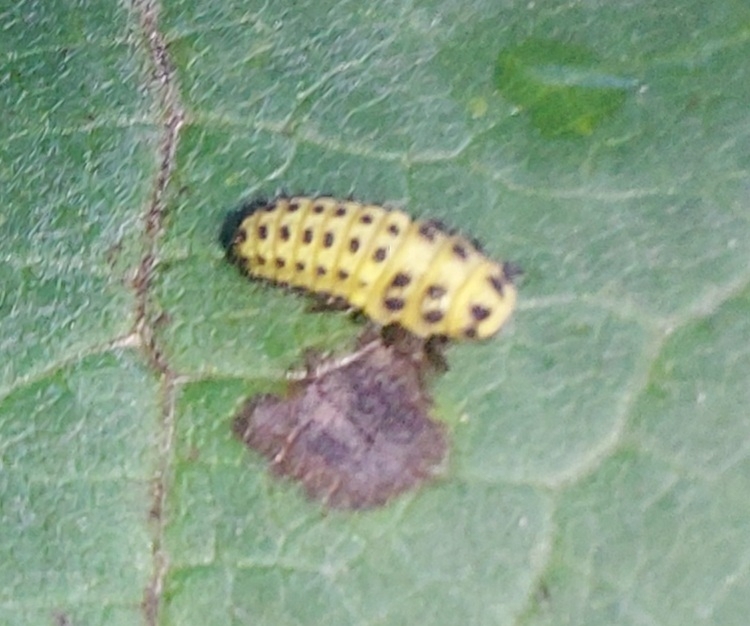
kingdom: Animalia
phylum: Arthropoda
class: Insecta
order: Coleoptera
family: Coccinellidae
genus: Psyllobora
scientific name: Psyllobora vigintiduopunctata
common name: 22-spot ladybird
